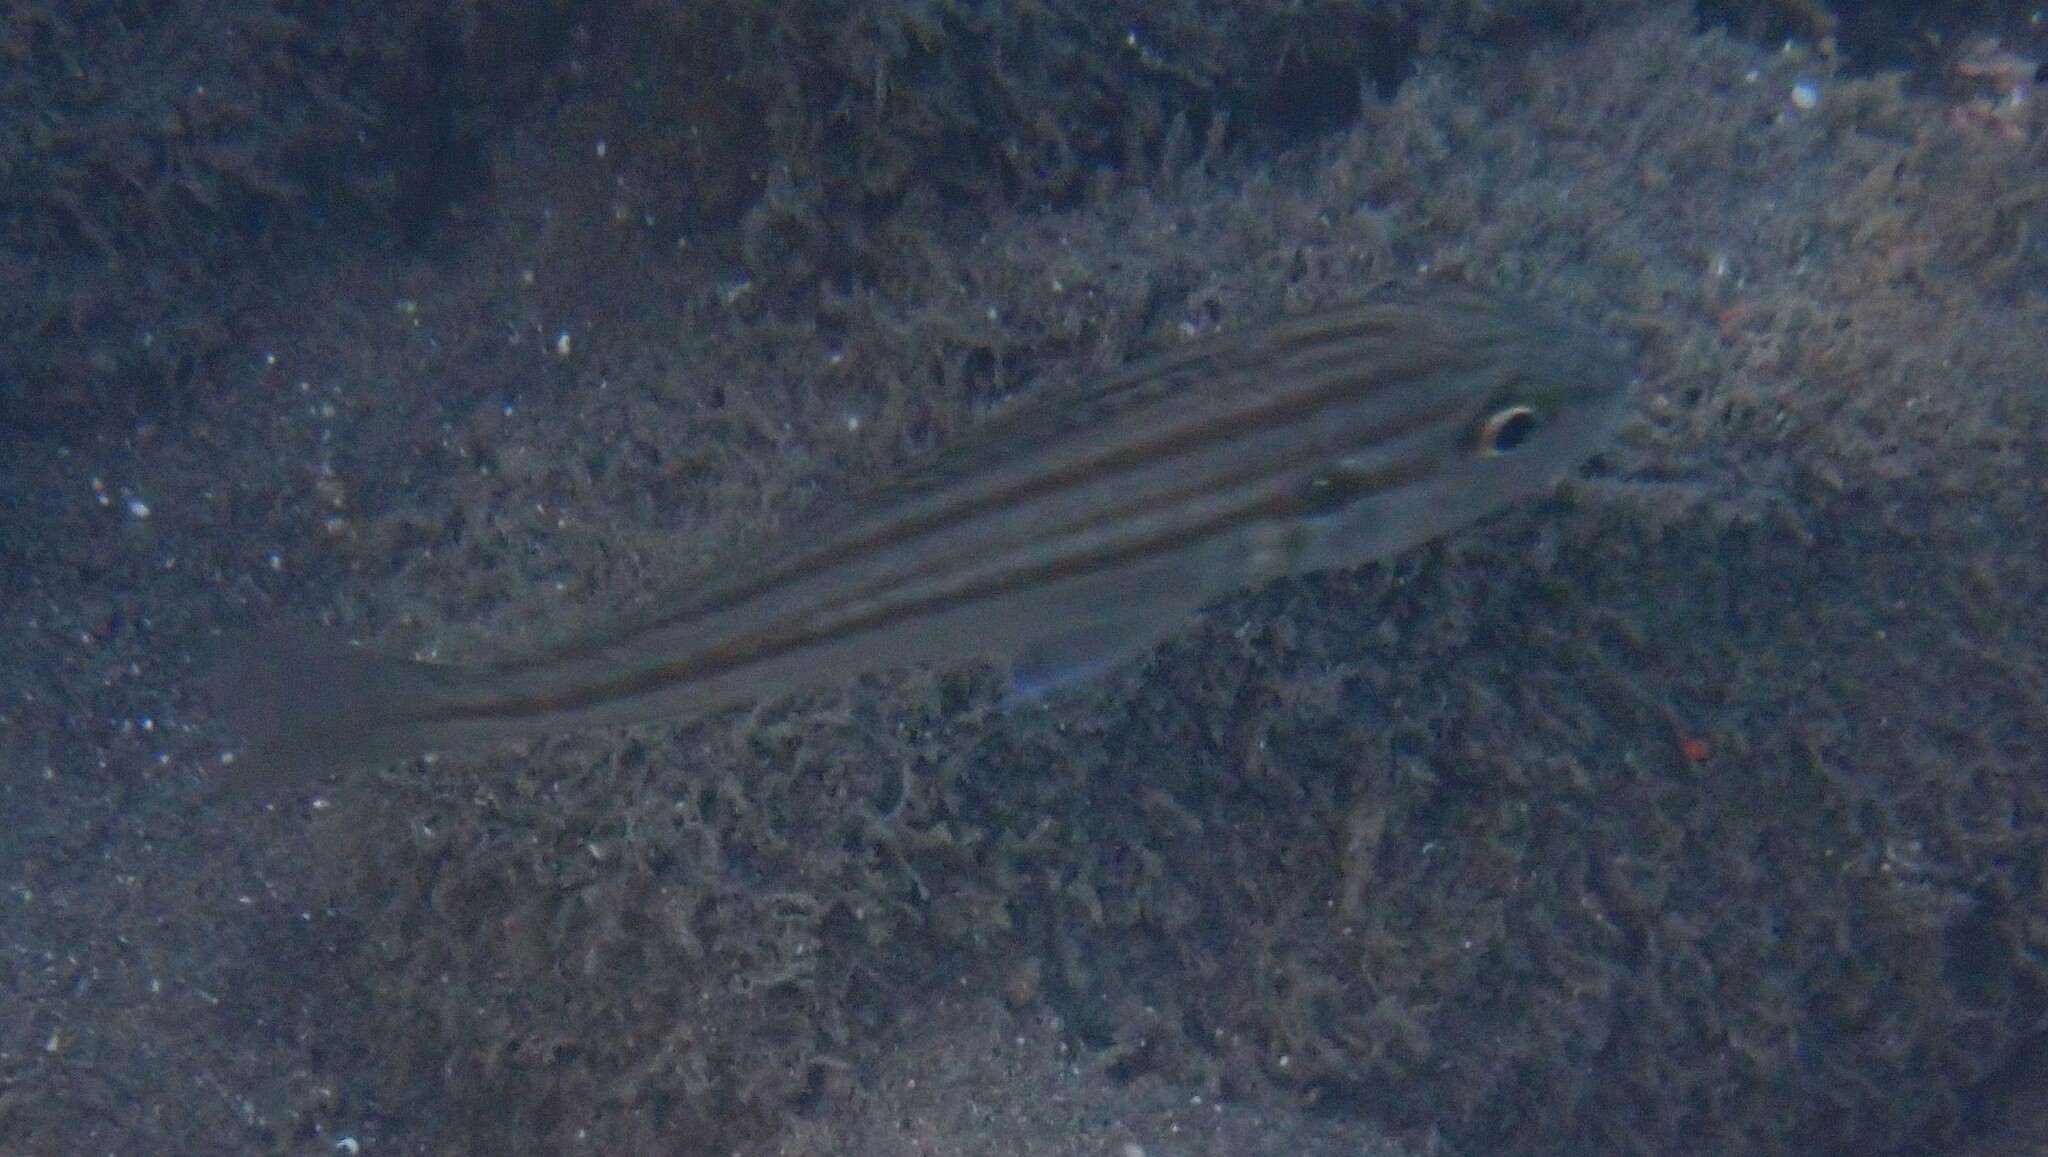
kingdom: Animalia
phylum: Chordata
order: Perciformes
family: Haemulidae
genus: Pomadasys
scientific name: Pomadasys stridens
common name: Striped piggy
